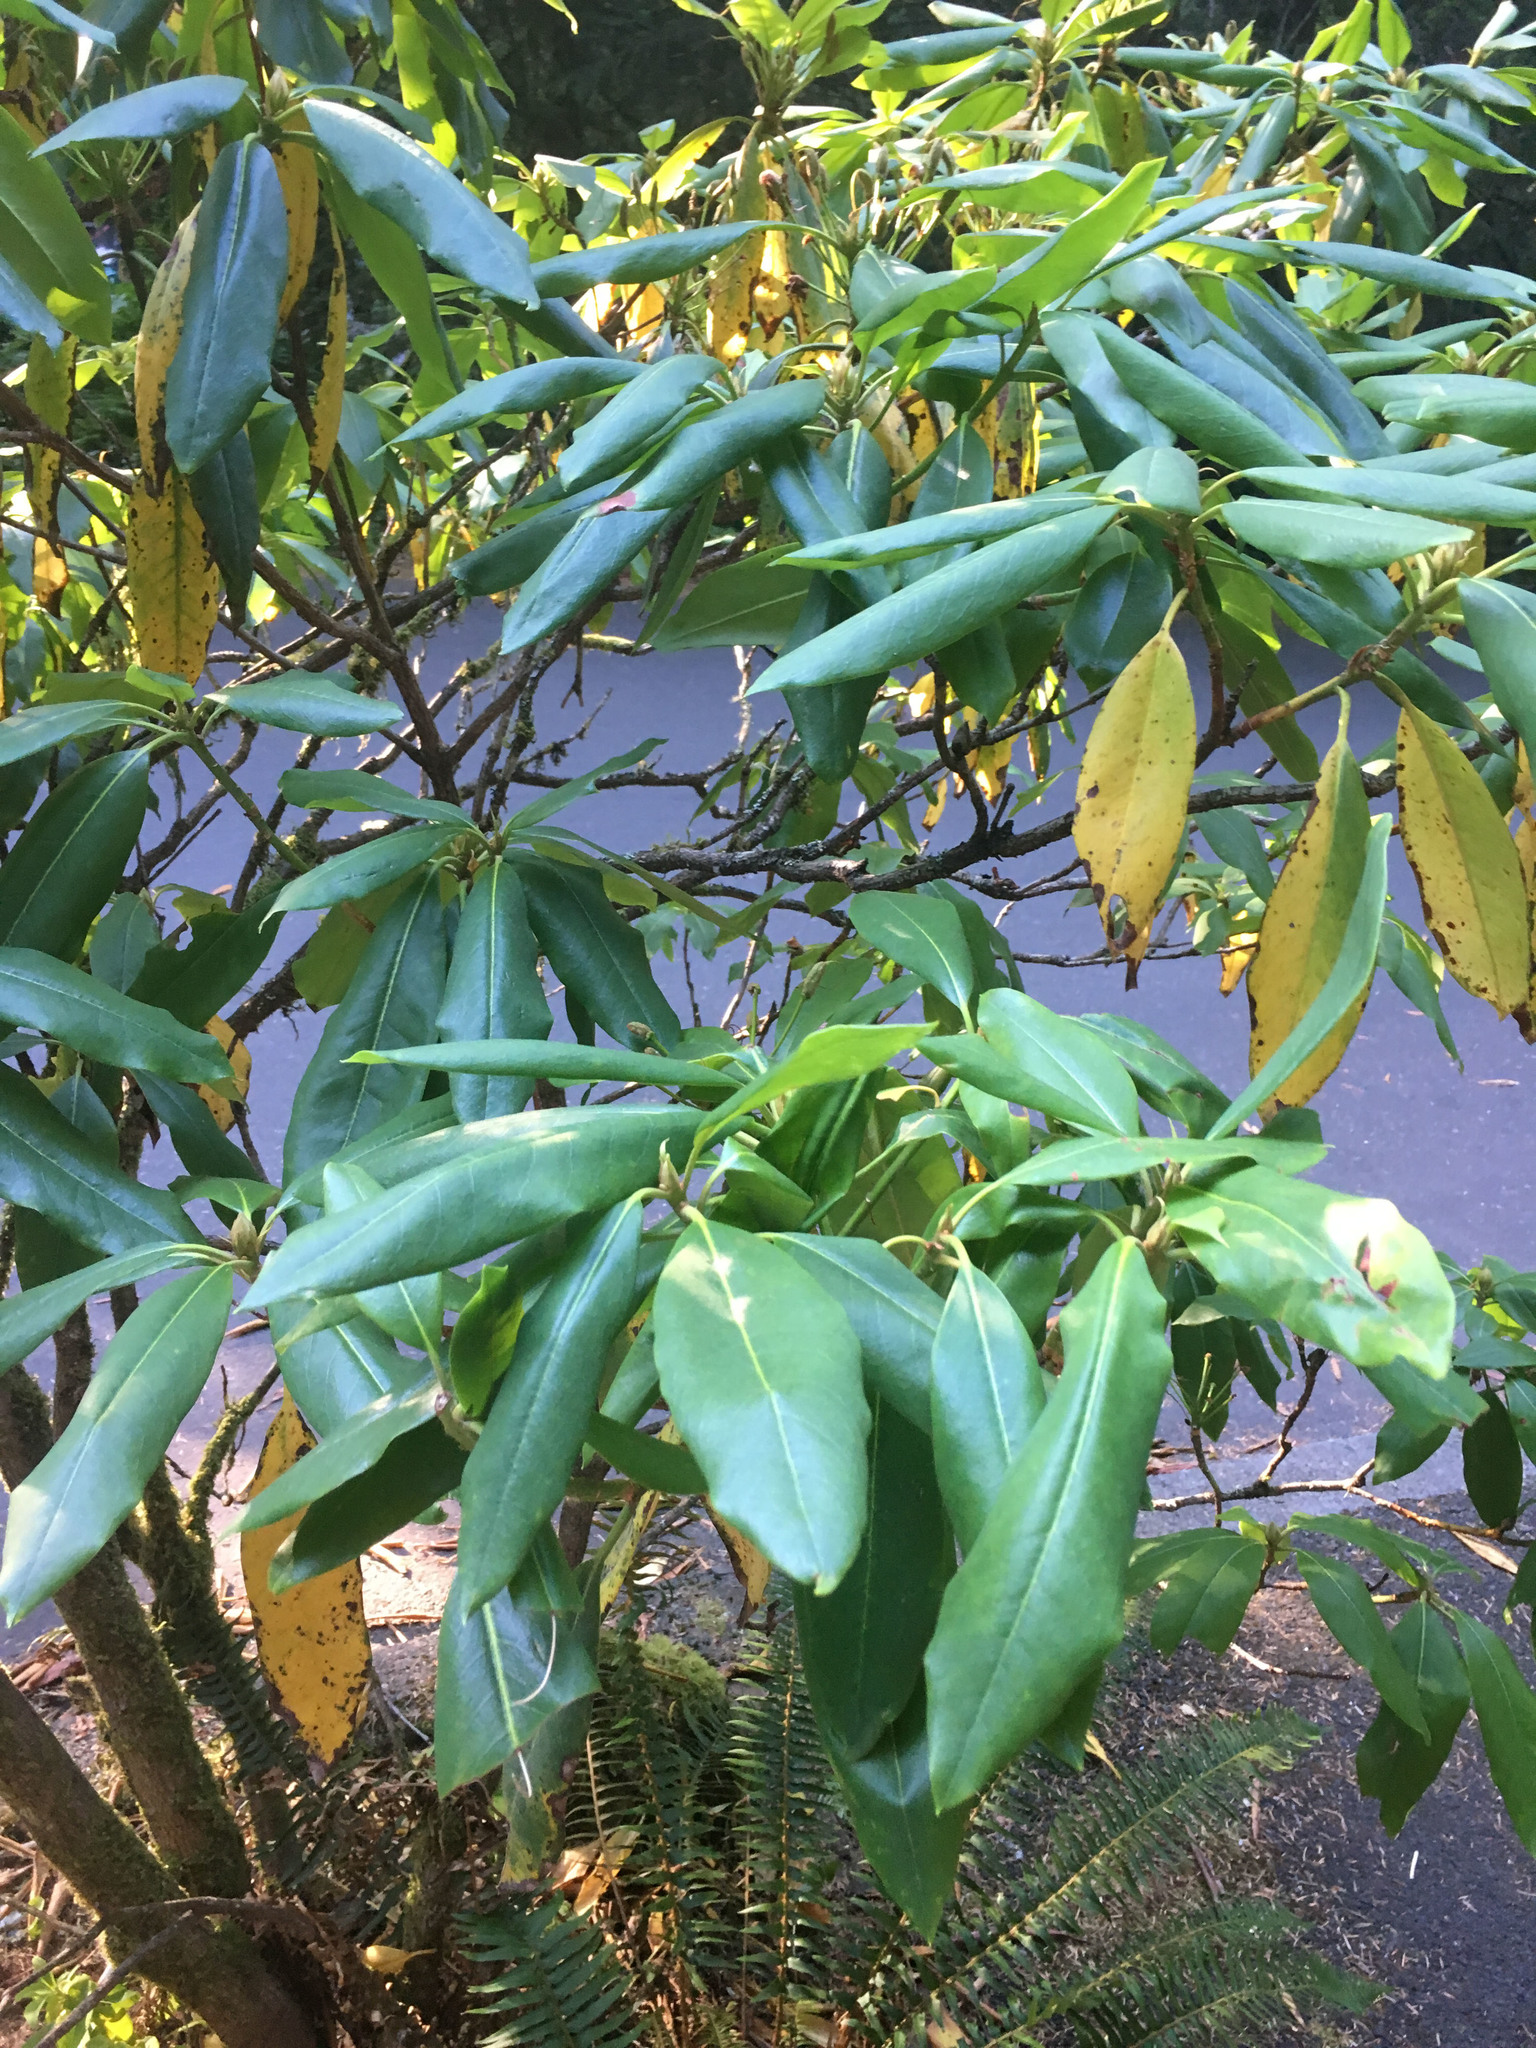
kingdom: Plantae
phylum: Tracheophyta
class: Magnoliopsida
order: Ericales
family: Ericaceae
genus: Rhododendron
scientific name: Rhododendron macrophyllum
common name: California rose bay
